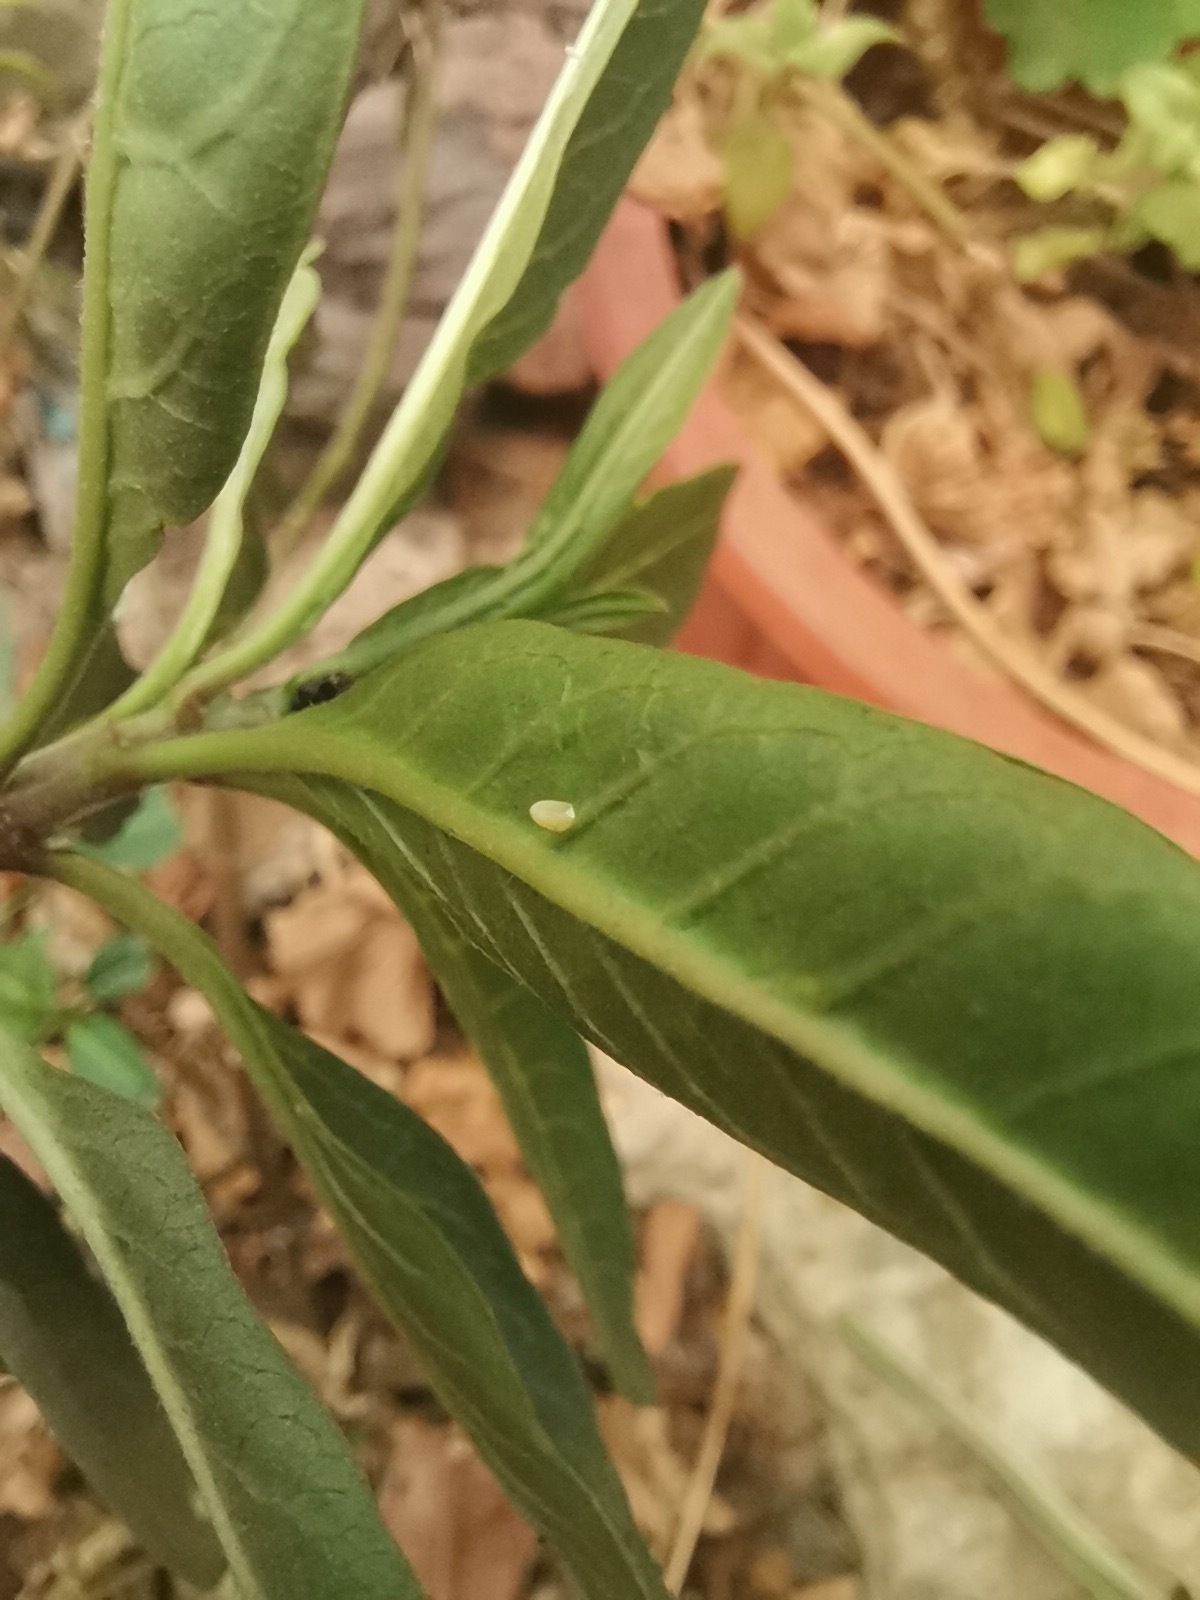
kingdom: Animalia
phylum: Arthropoda
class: Insecta
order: Lepidoptera
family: Nymphalidae
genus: Danaus
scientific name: Danaus plexippus
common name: Monarch
